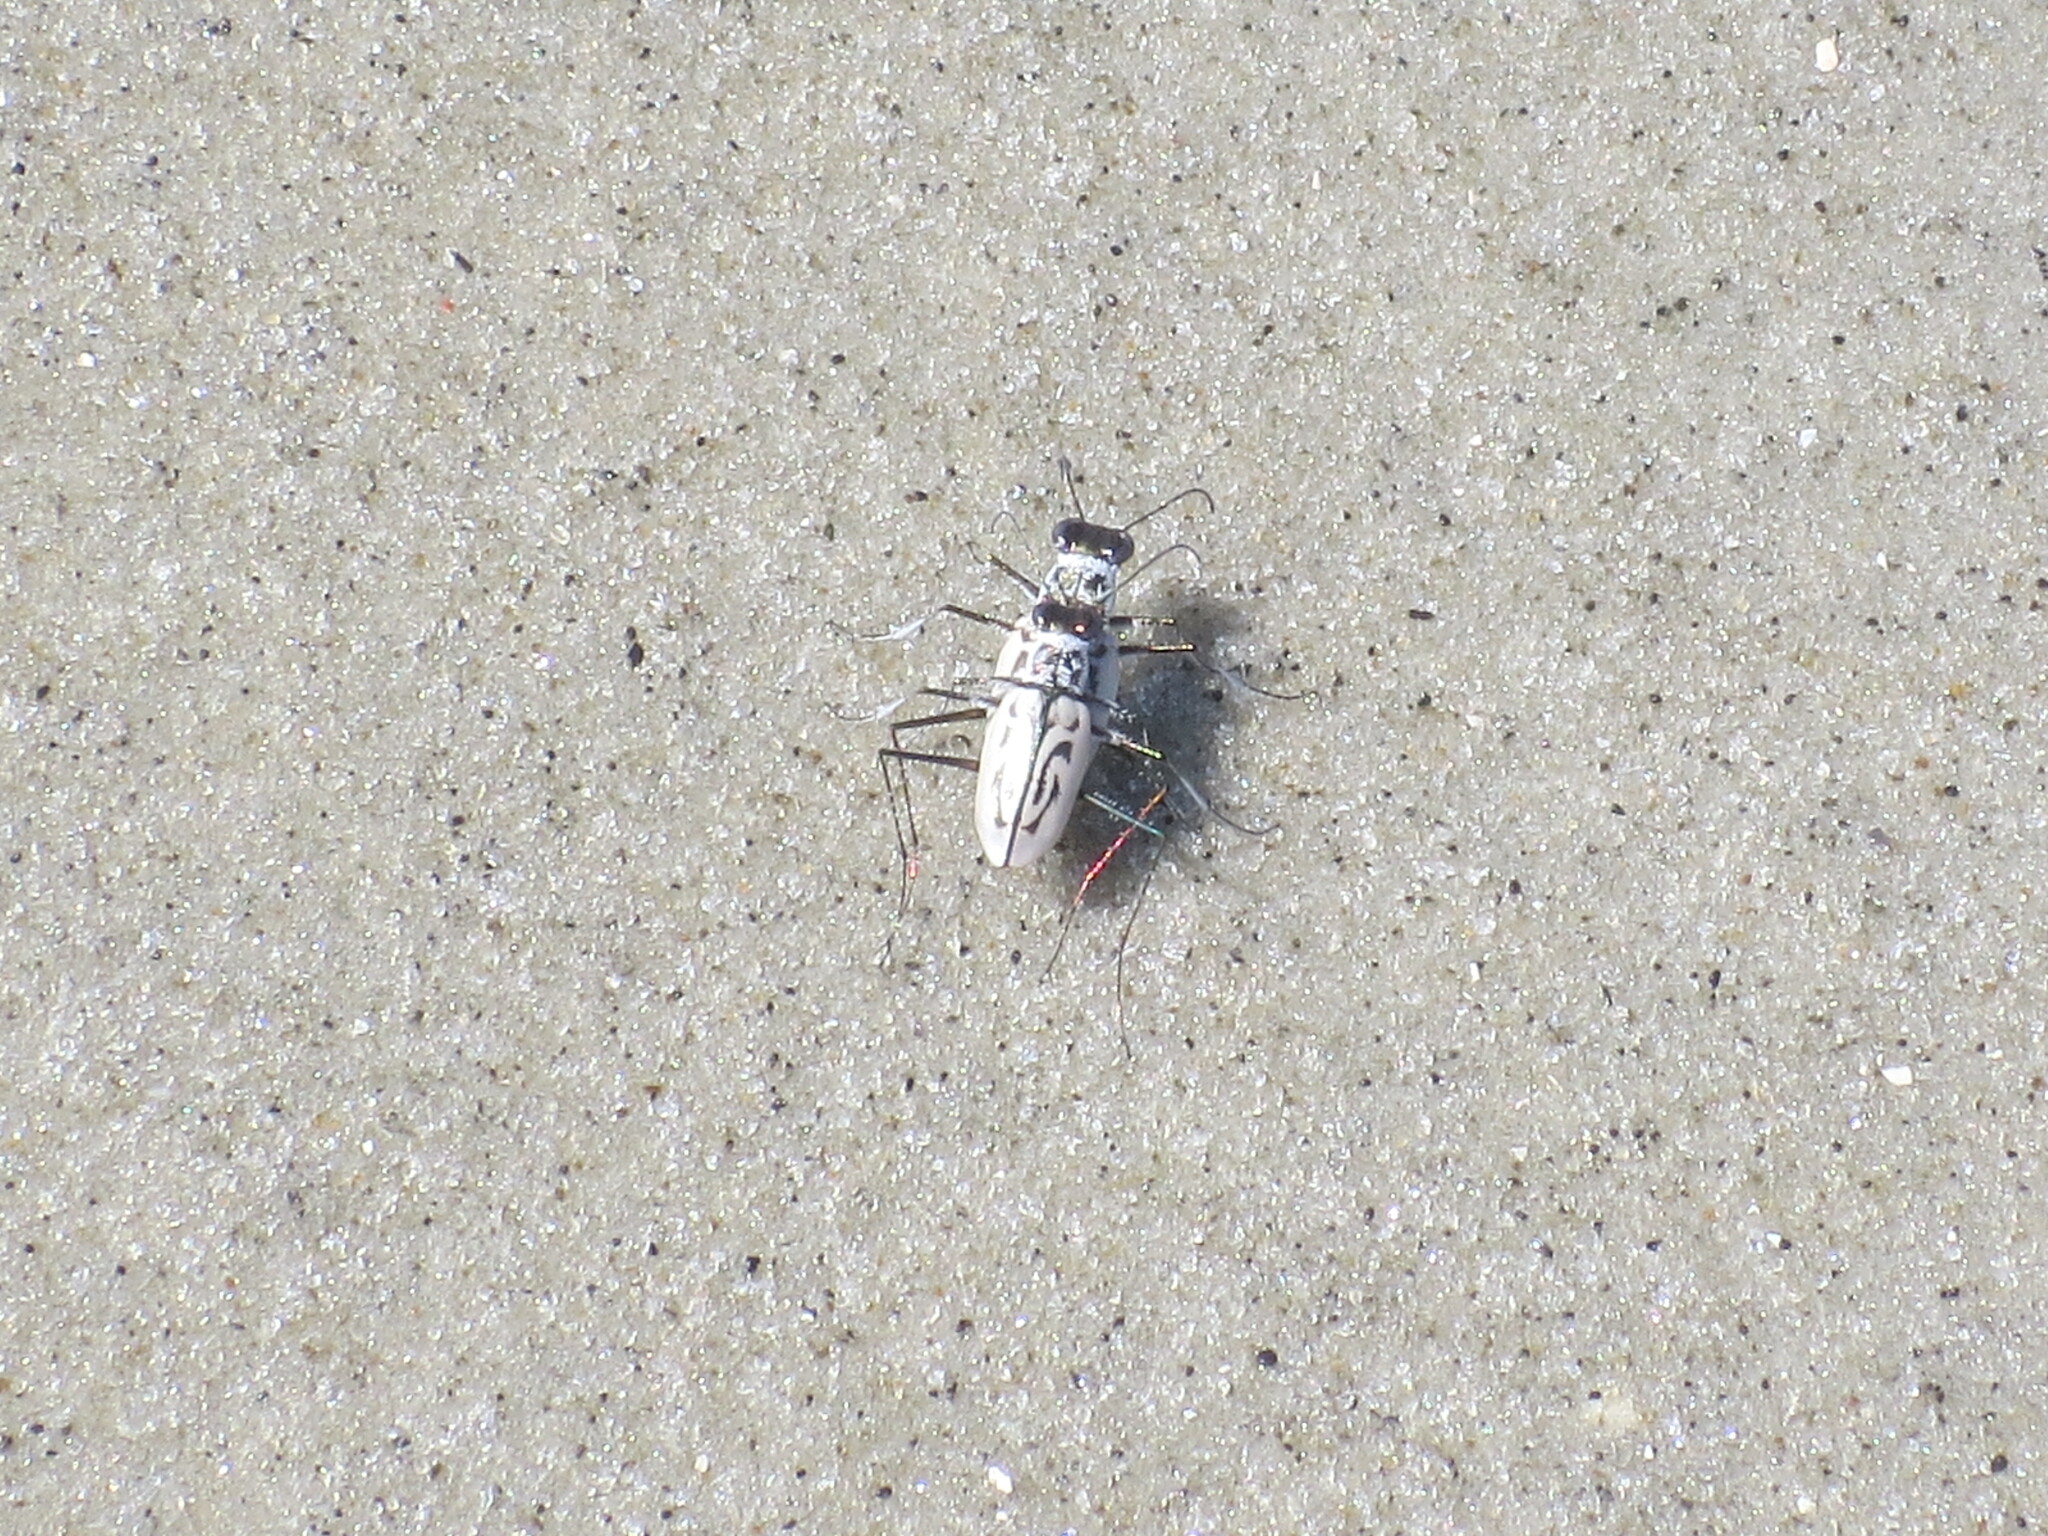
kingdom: Animalia
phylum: Arthropoda
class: Insecta
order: Coleoptera
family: Carabidae
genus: Habroscelimorpha
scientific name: Habroscelimorpha dorsalis
